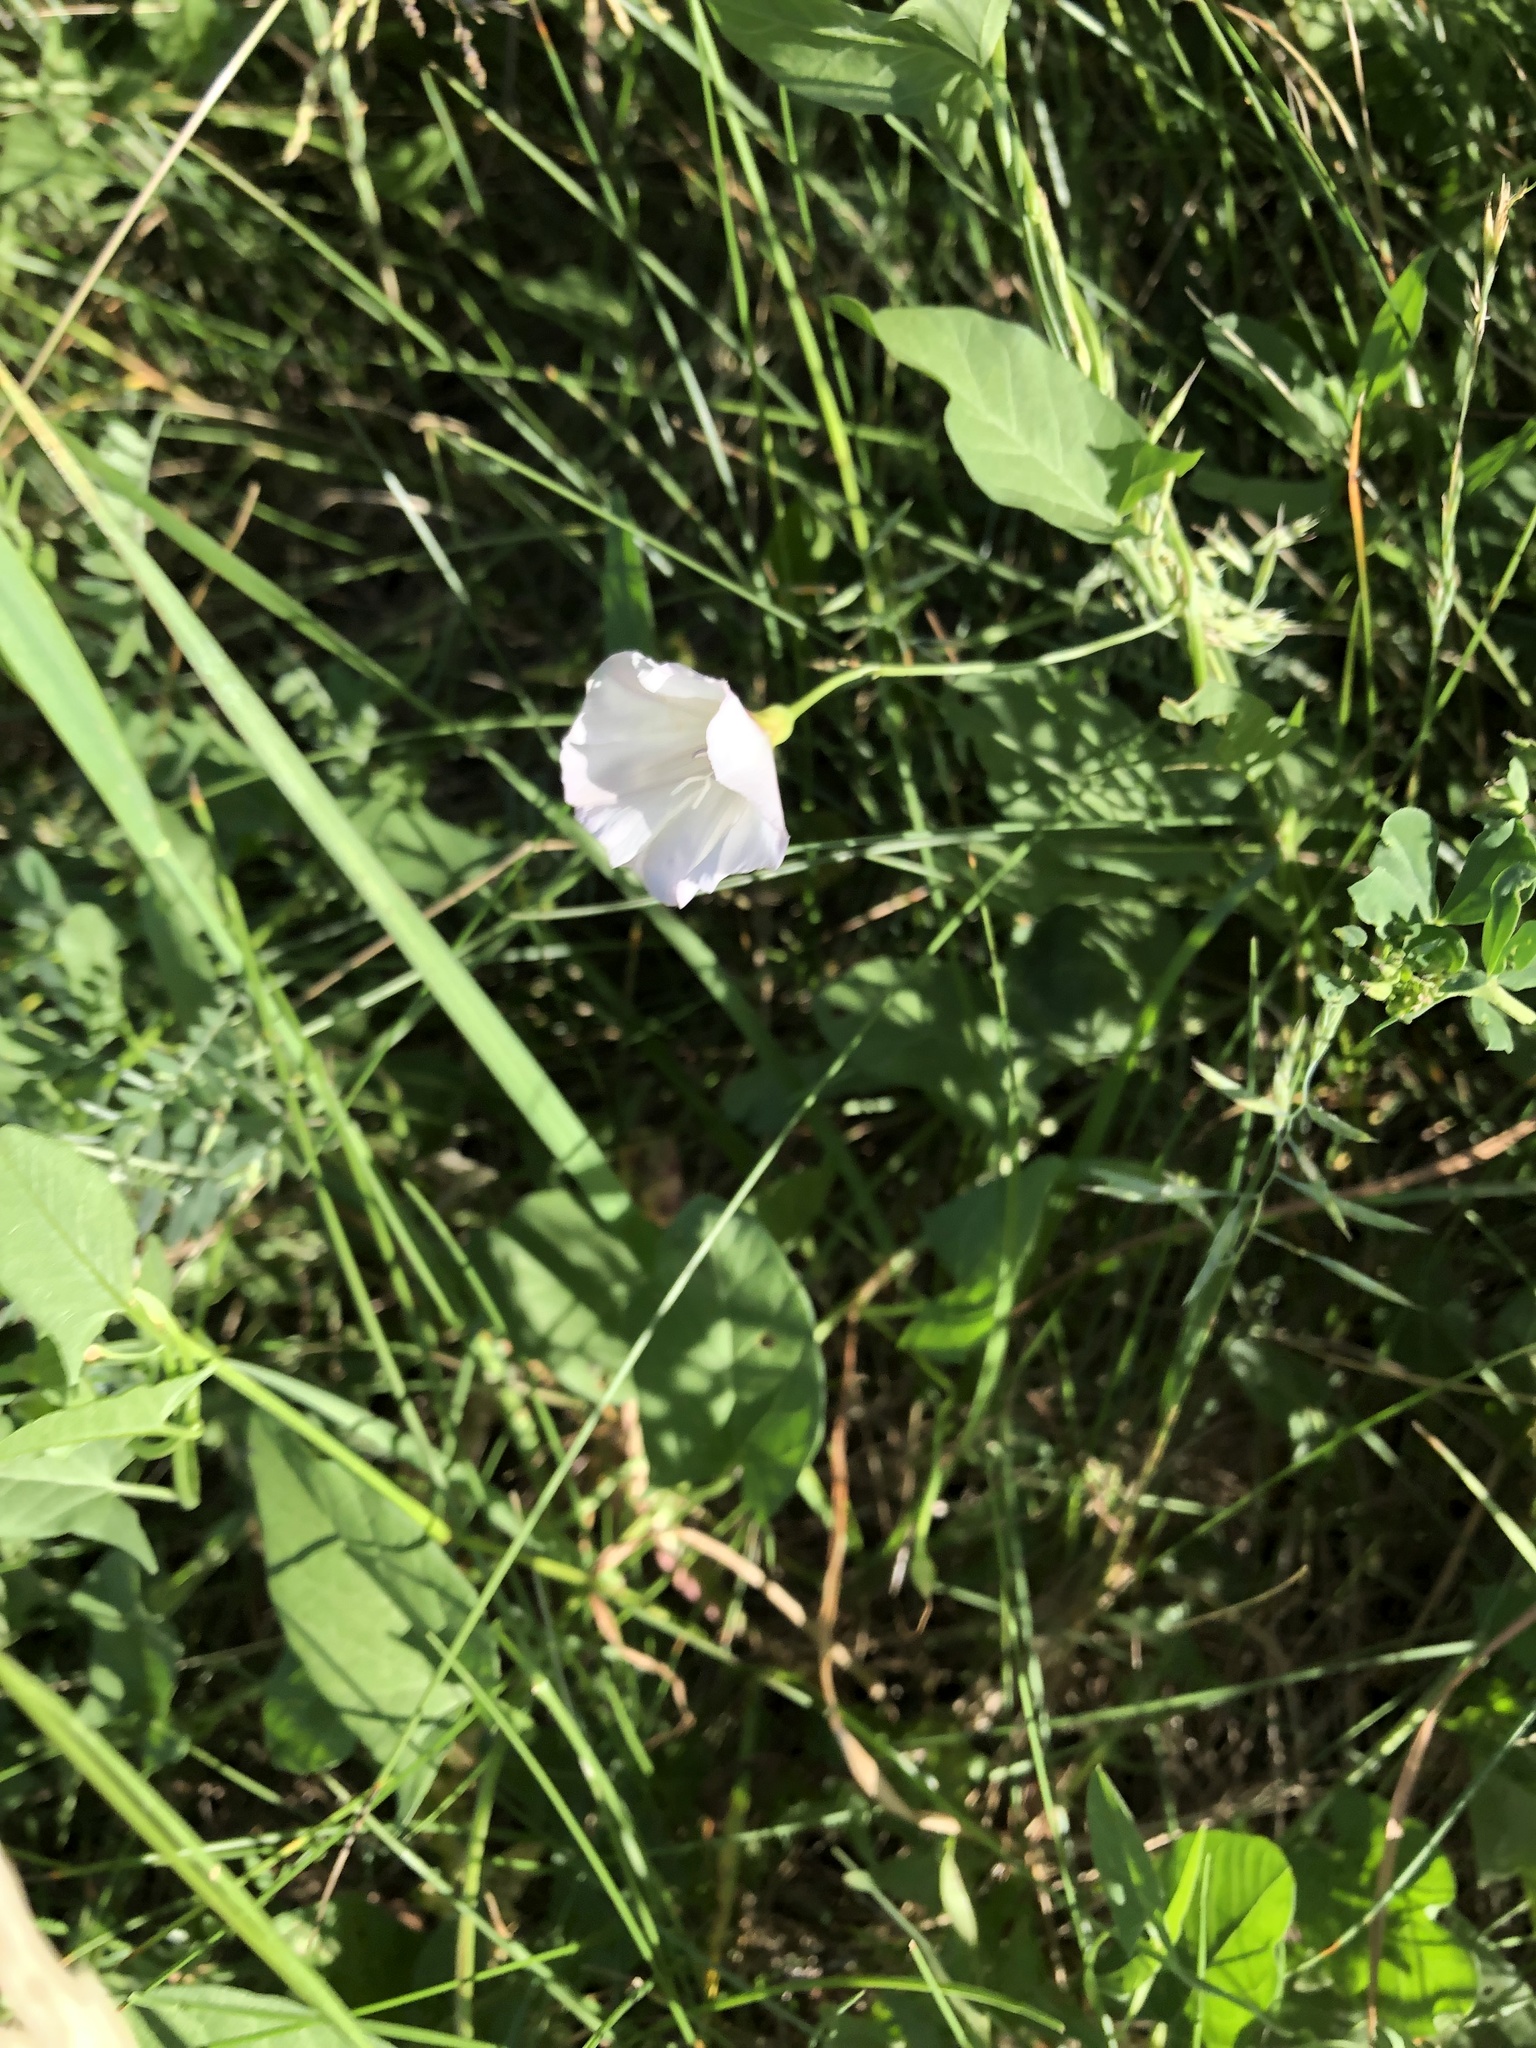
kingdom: Plantae
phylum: Tracheophyta
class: Magnoliopsida
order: Solanales
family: Convolvulaceae
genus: Convolvulus
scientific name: Convolvulus arvensis
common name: Field bindweed
